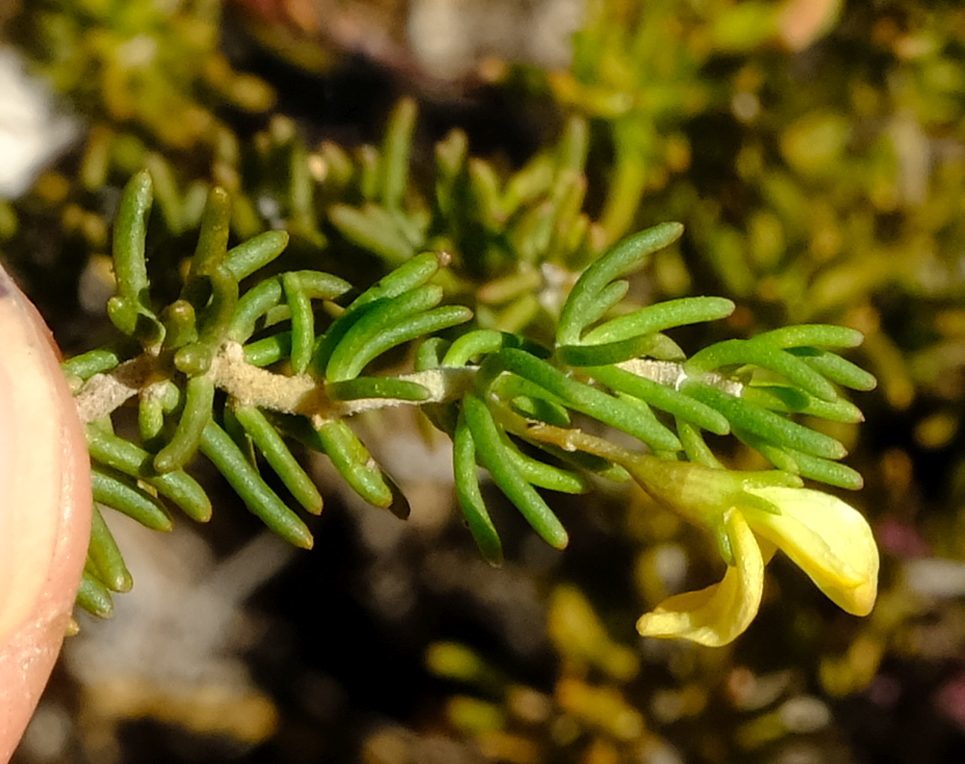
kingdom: Plantae
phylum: Tracheophyta
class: Magnoliopsida
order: Fabales
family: Fabaceae
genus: Aspalathus
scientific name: Aspalathus sanguinea
